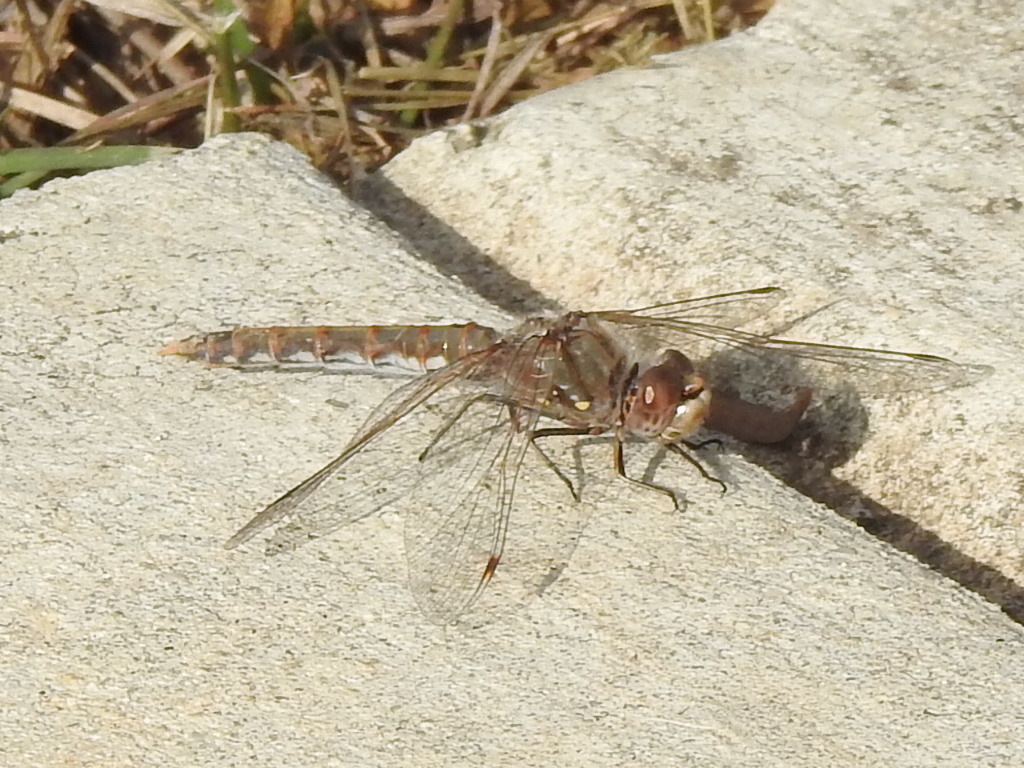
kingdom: Animalia
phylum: Arthropoda
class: Insecta
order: Odonata
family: Libellulidae
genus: Sympetrum
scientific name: Sympetrum corruptum
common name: Variegated meadowhawk
